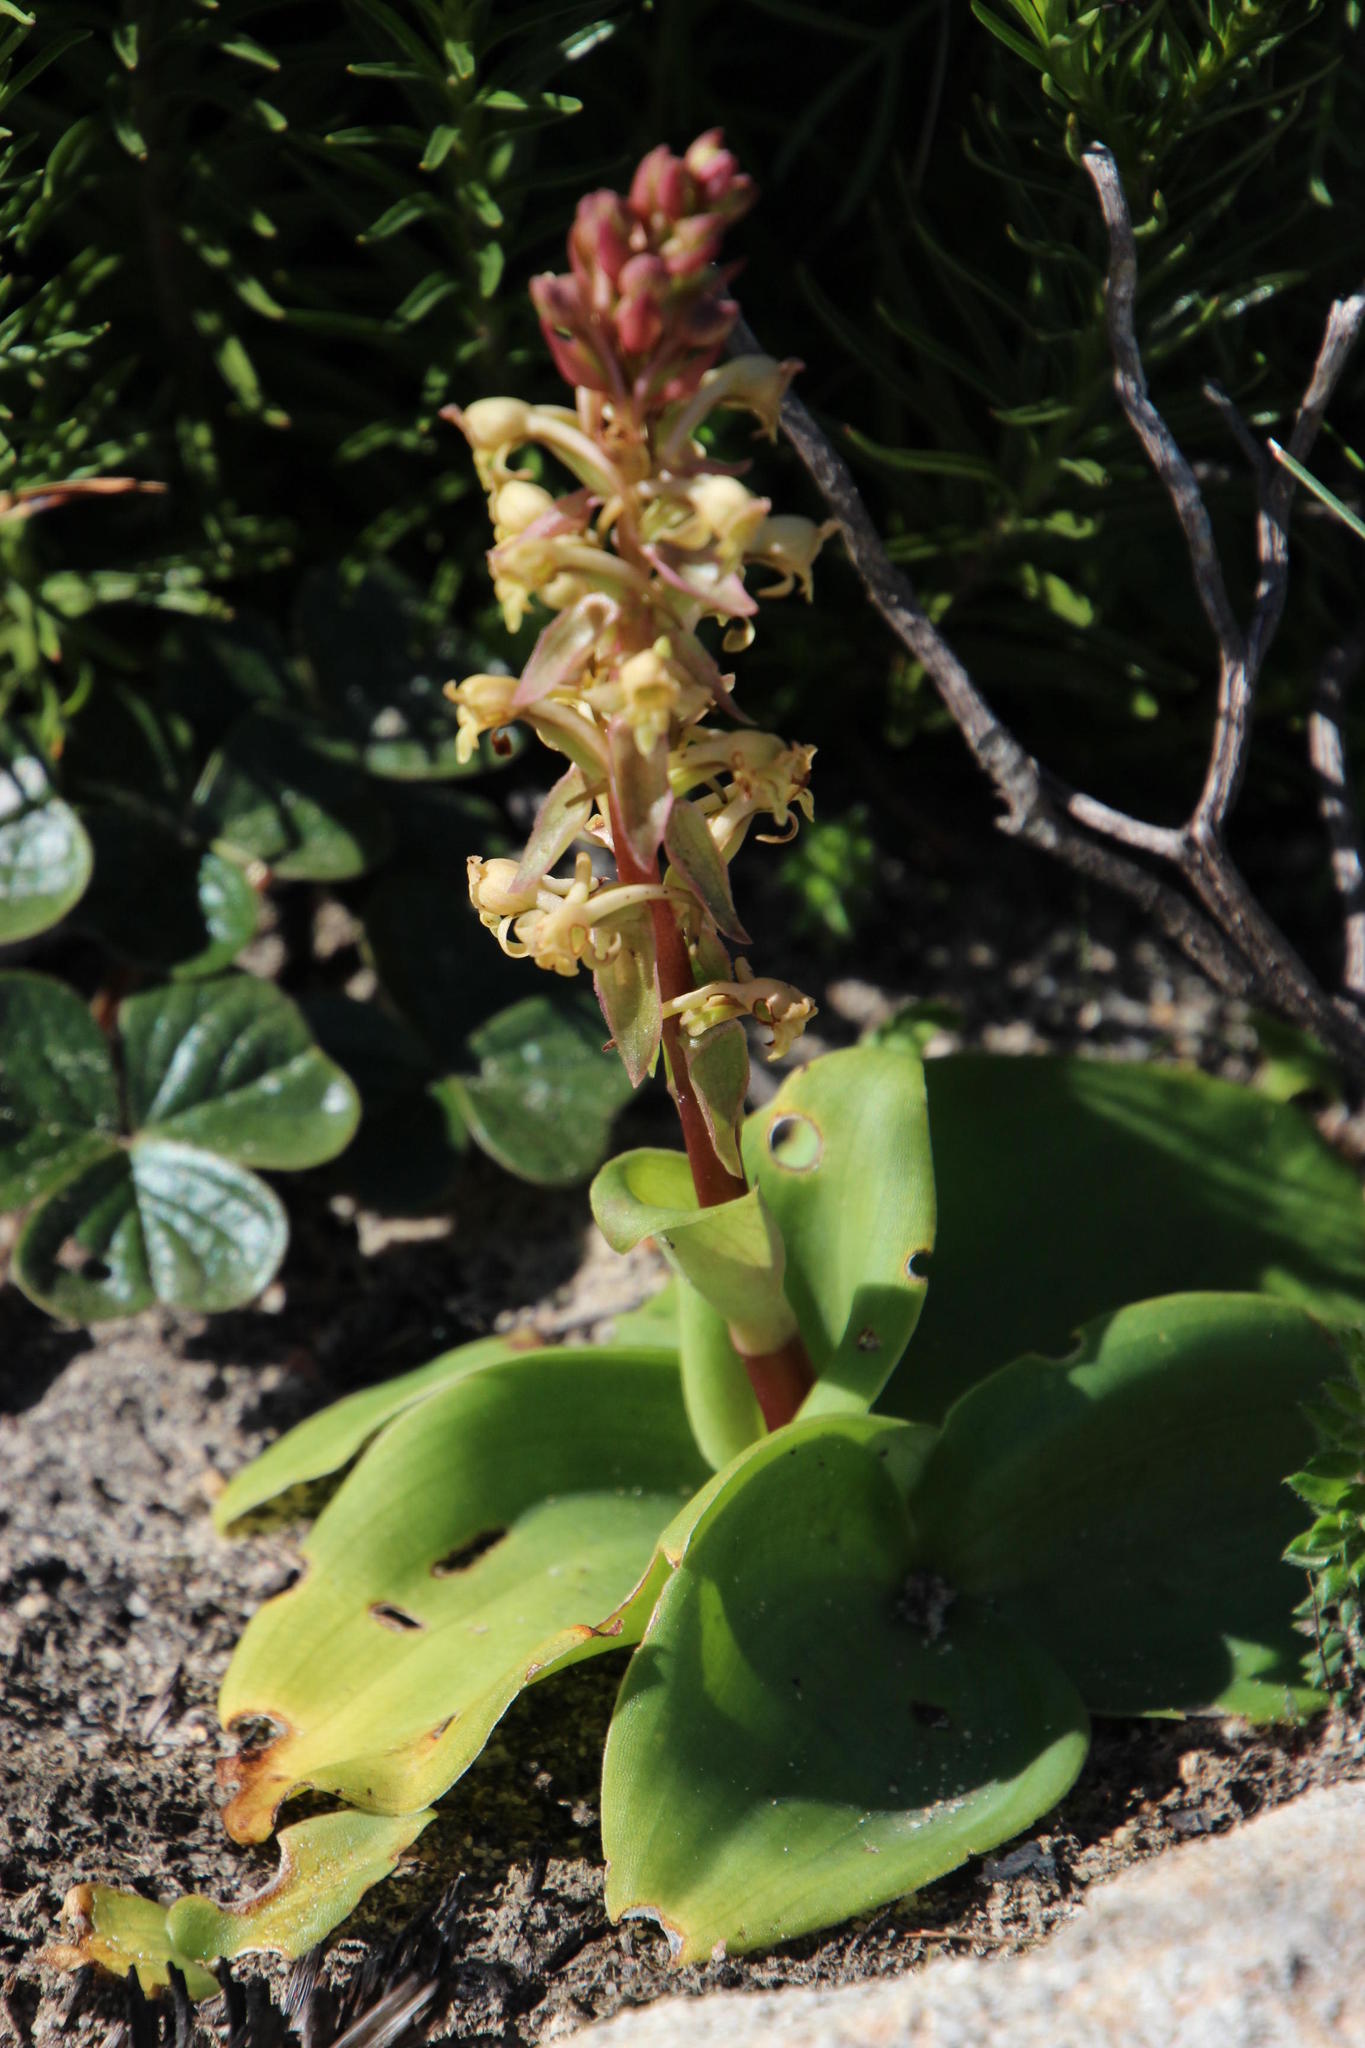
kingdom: Plantae
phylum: Tracheophyta
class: Liliopsida
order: Asparagales
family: Orchidaceae
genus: Satyrium
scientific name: Satyrium humile
